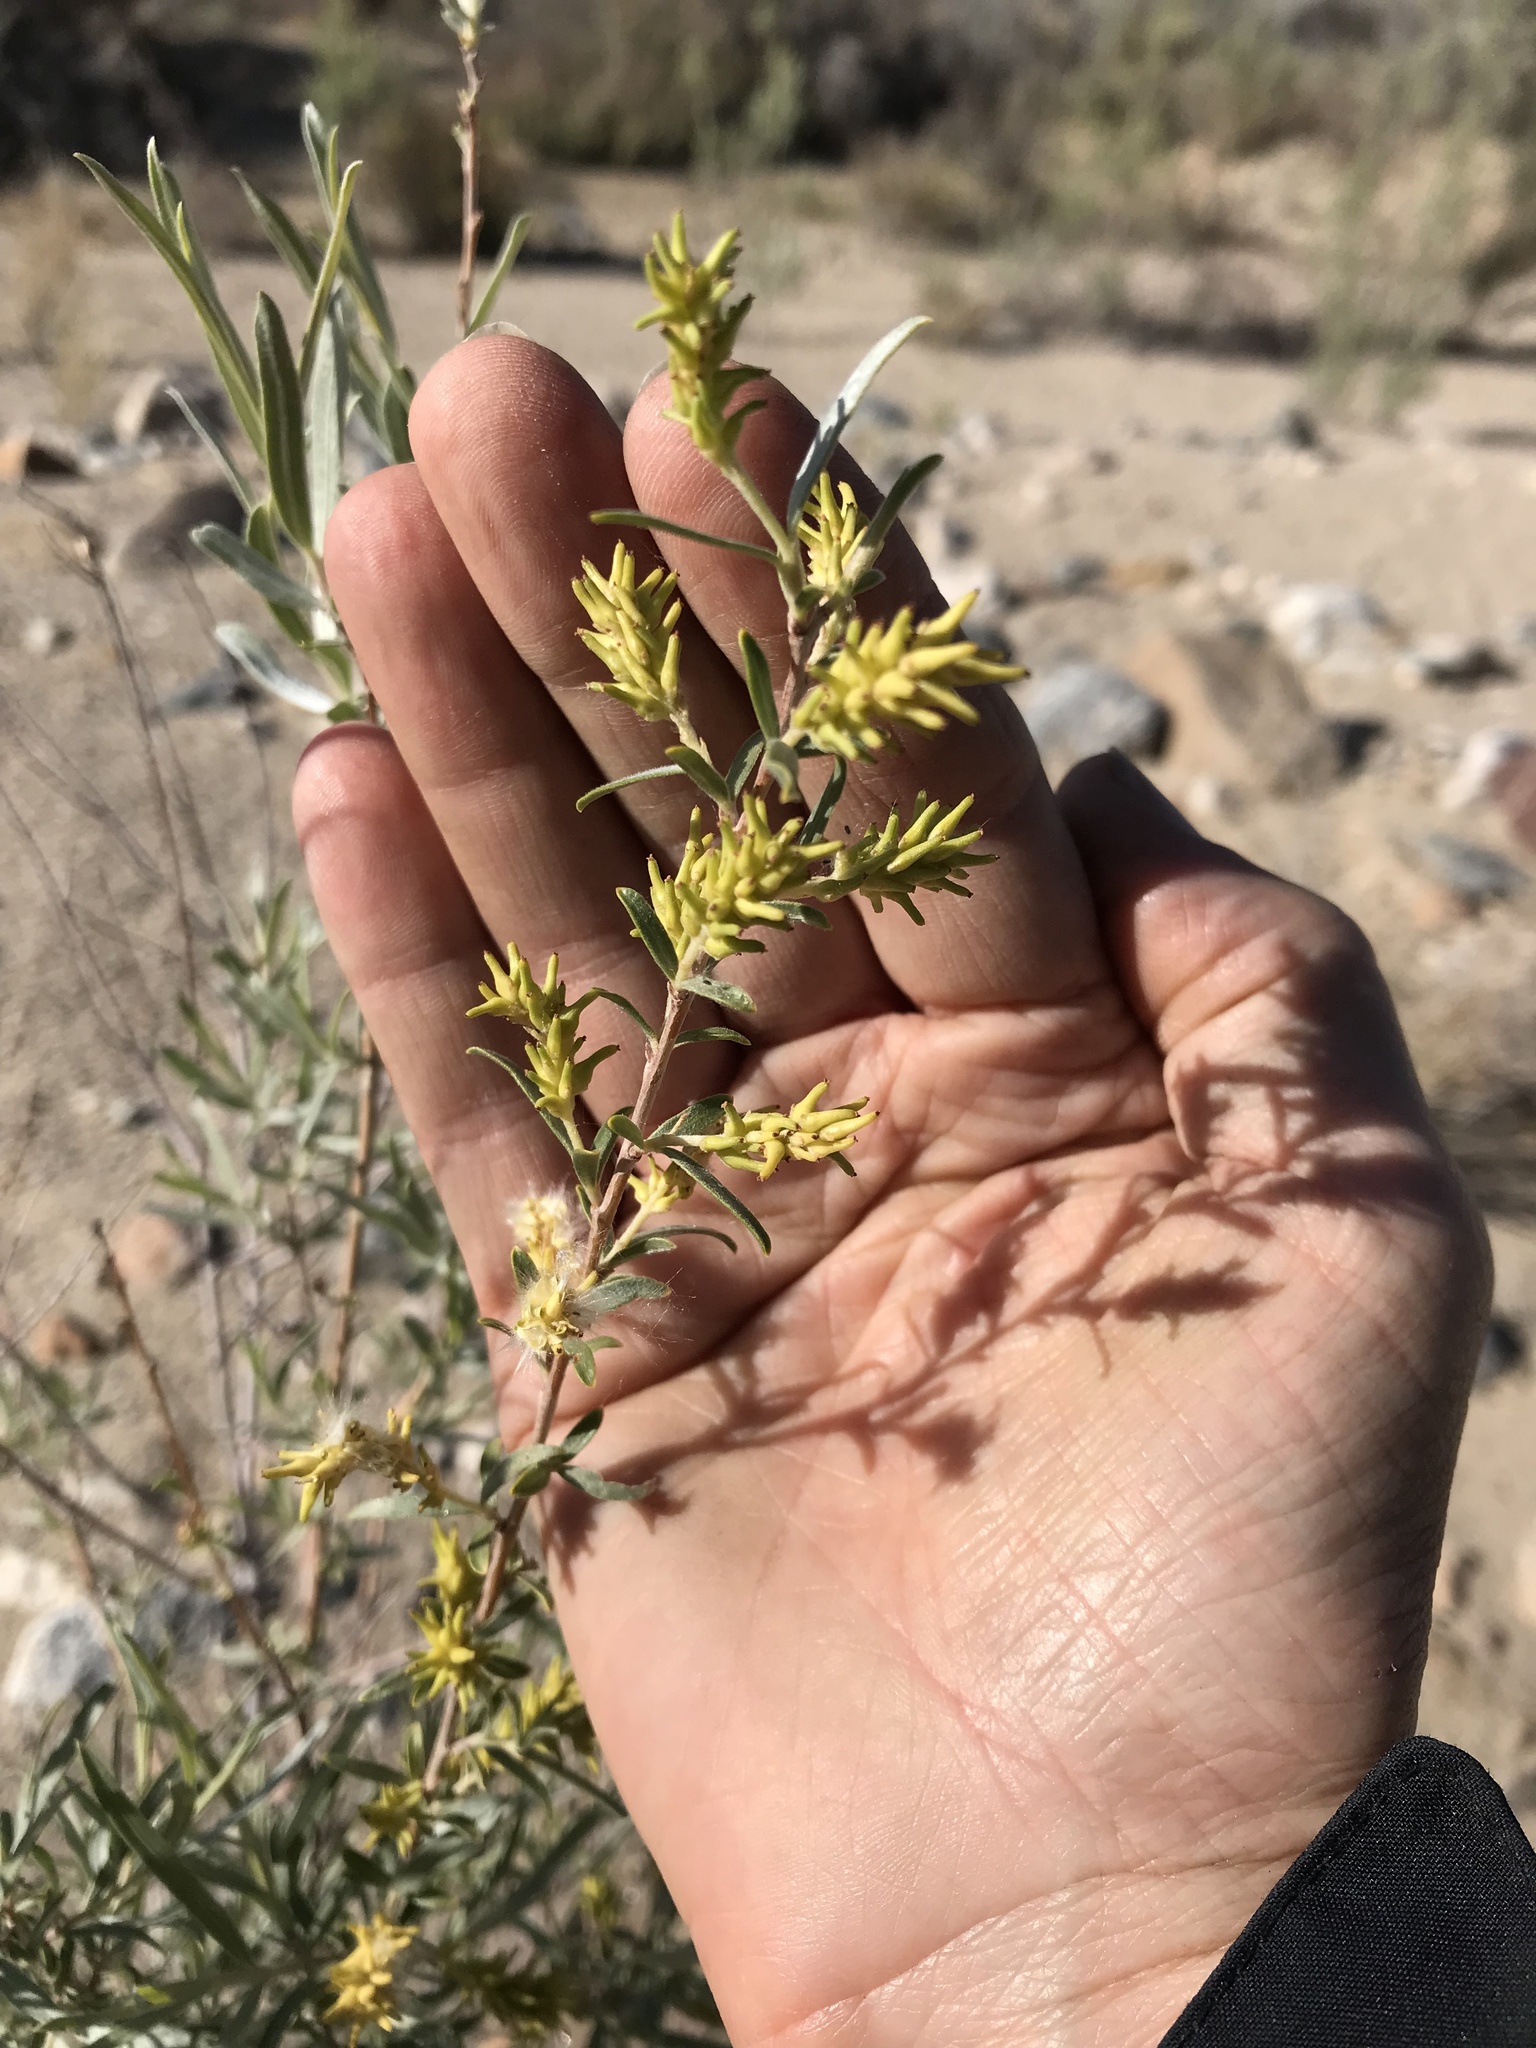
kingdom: Plantae
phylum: Tracheophyta
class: Magnoliopsida
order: Malpighiales
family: Salicaceae
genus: Salix
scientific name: Salix exigua
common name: Coyote willow
